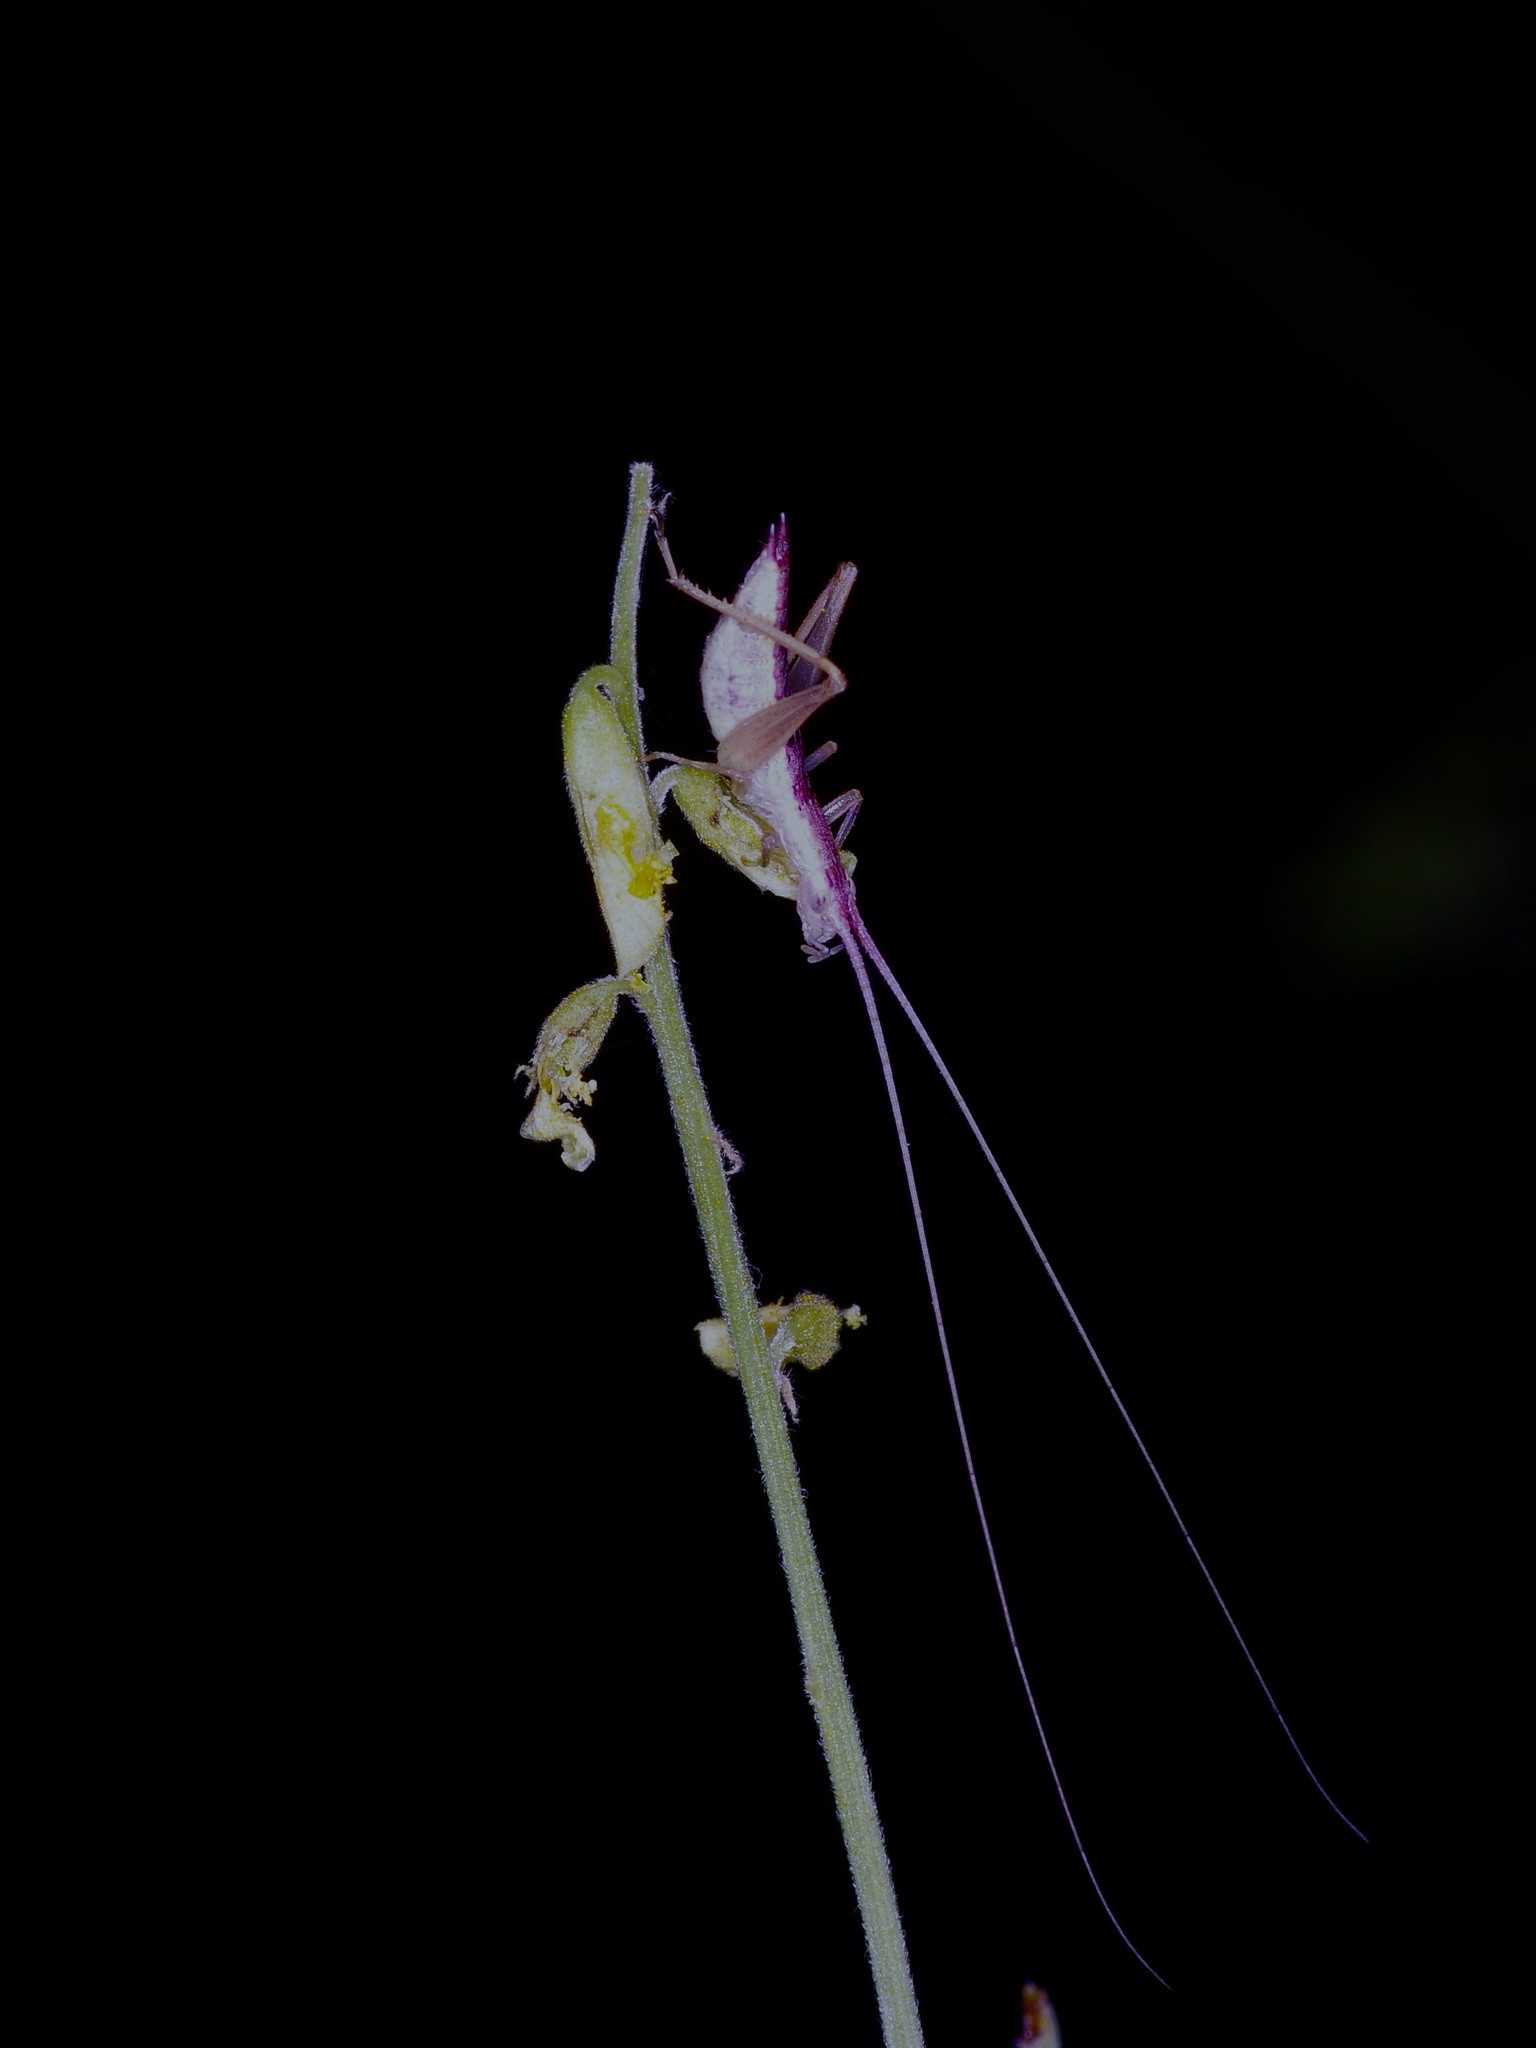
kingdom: Animalia
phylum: Arthropoda
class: Insecta
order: Orthoptera
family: Gryllidae
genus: Oecanthus
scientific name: Oecanthus latipennis
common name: Broad-winged tree cricket
